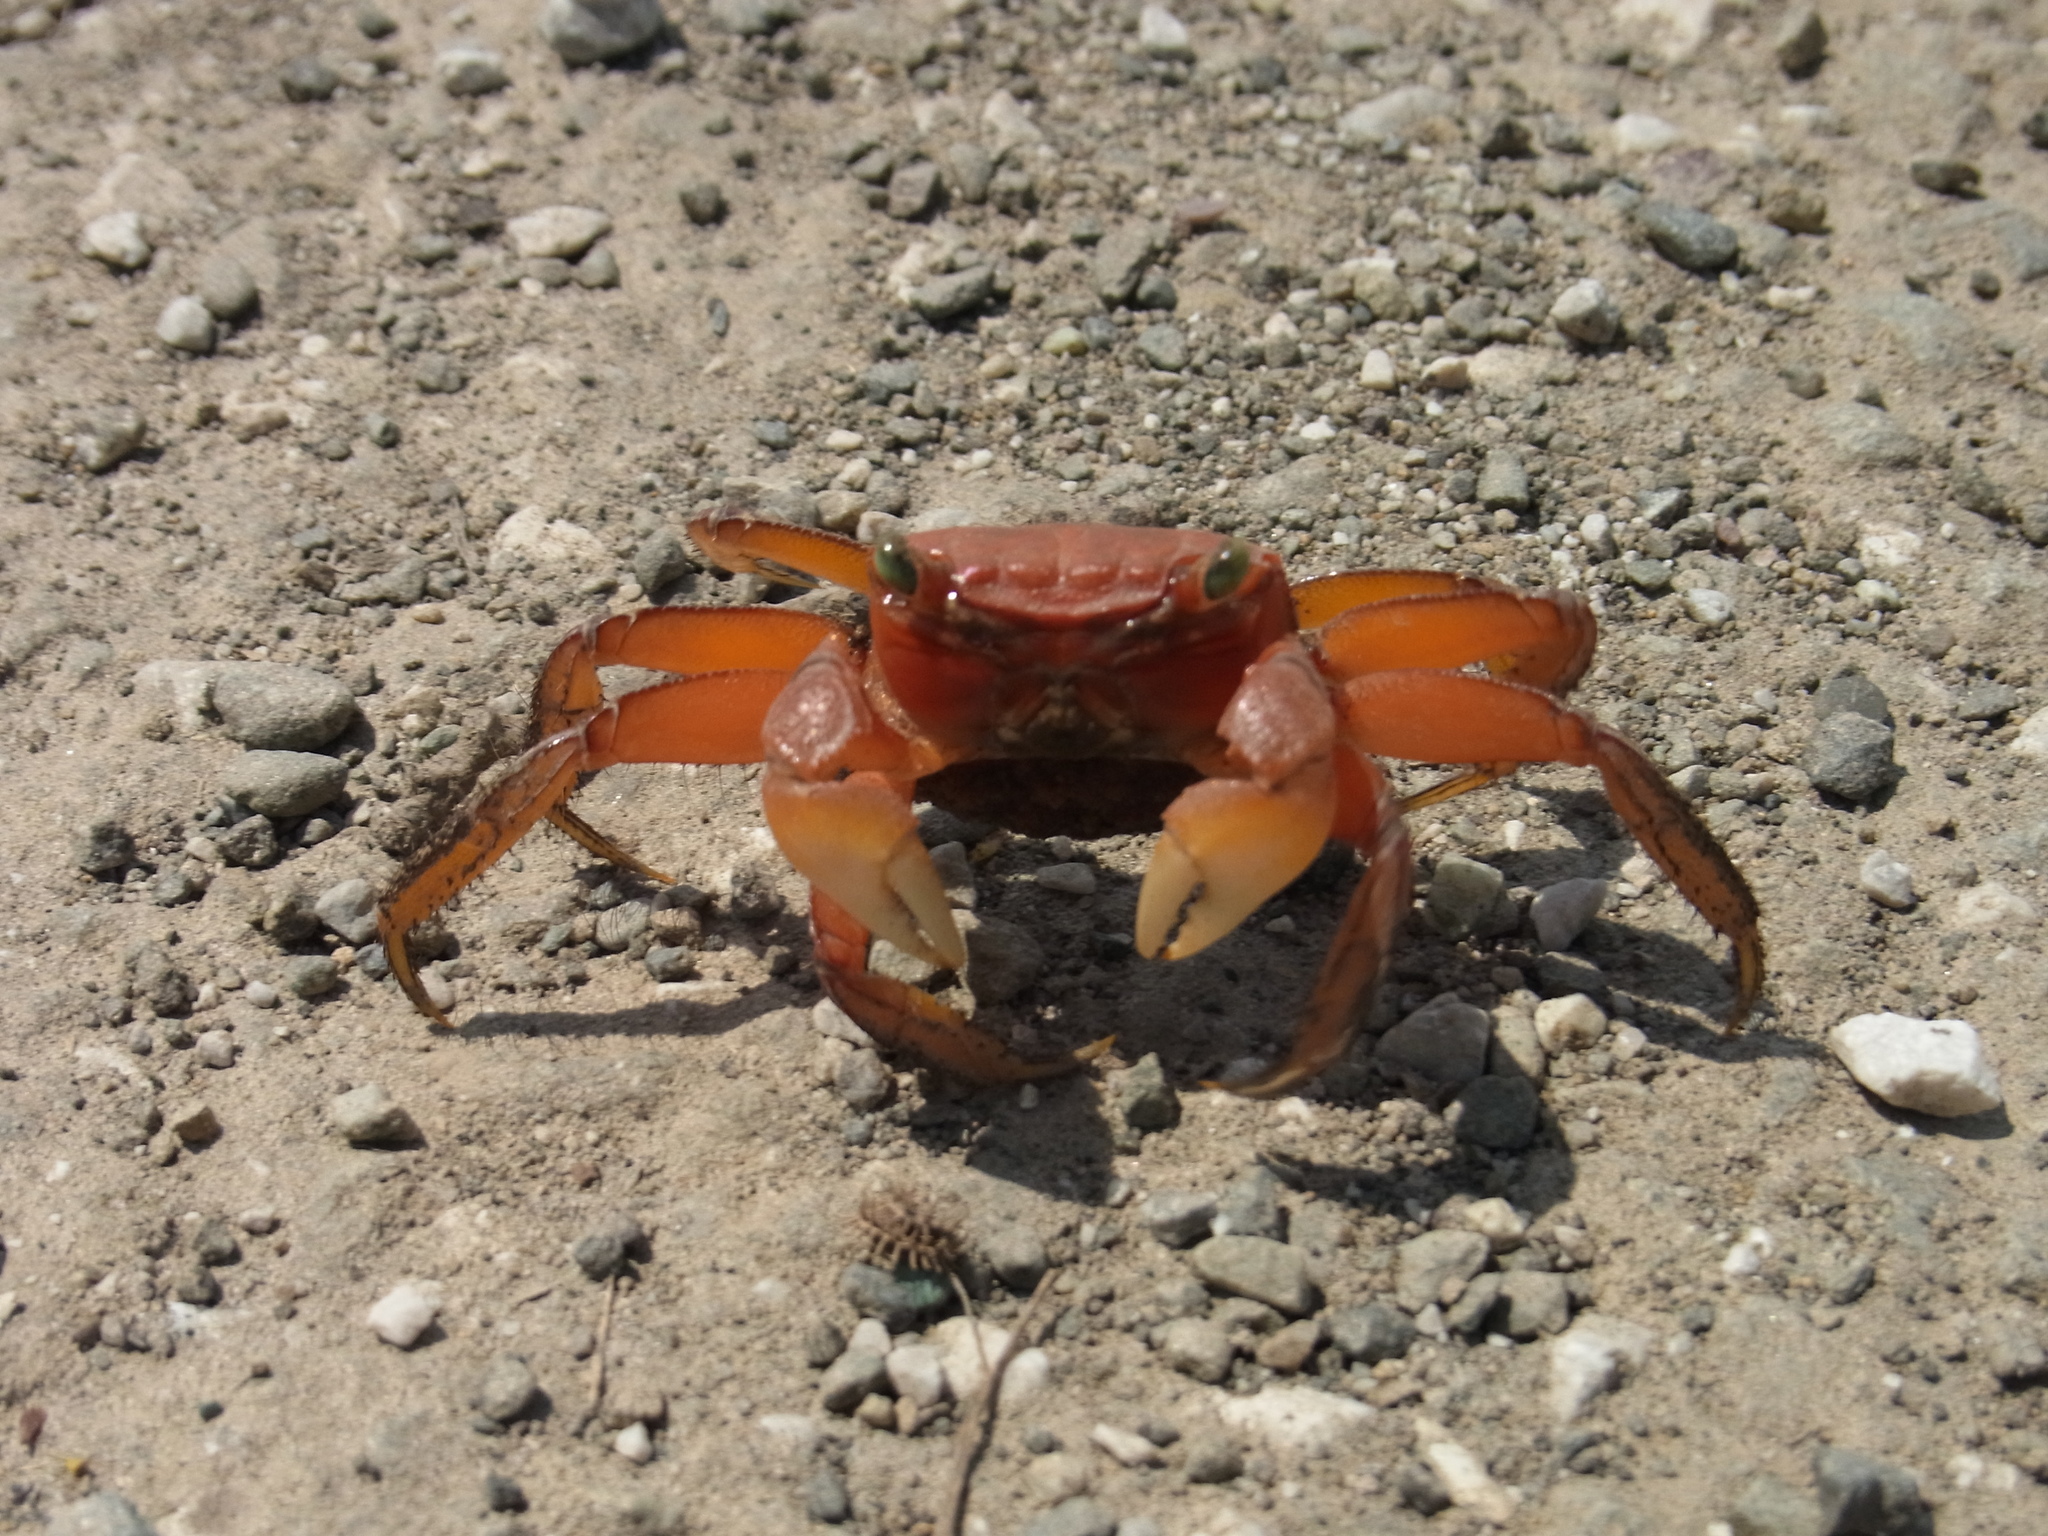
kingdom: Animalia
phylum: Arthropoda
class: Malacostraca
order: Decapoda
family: Sesarmidae
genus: Orisarma
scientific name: Orisarma intermedium
